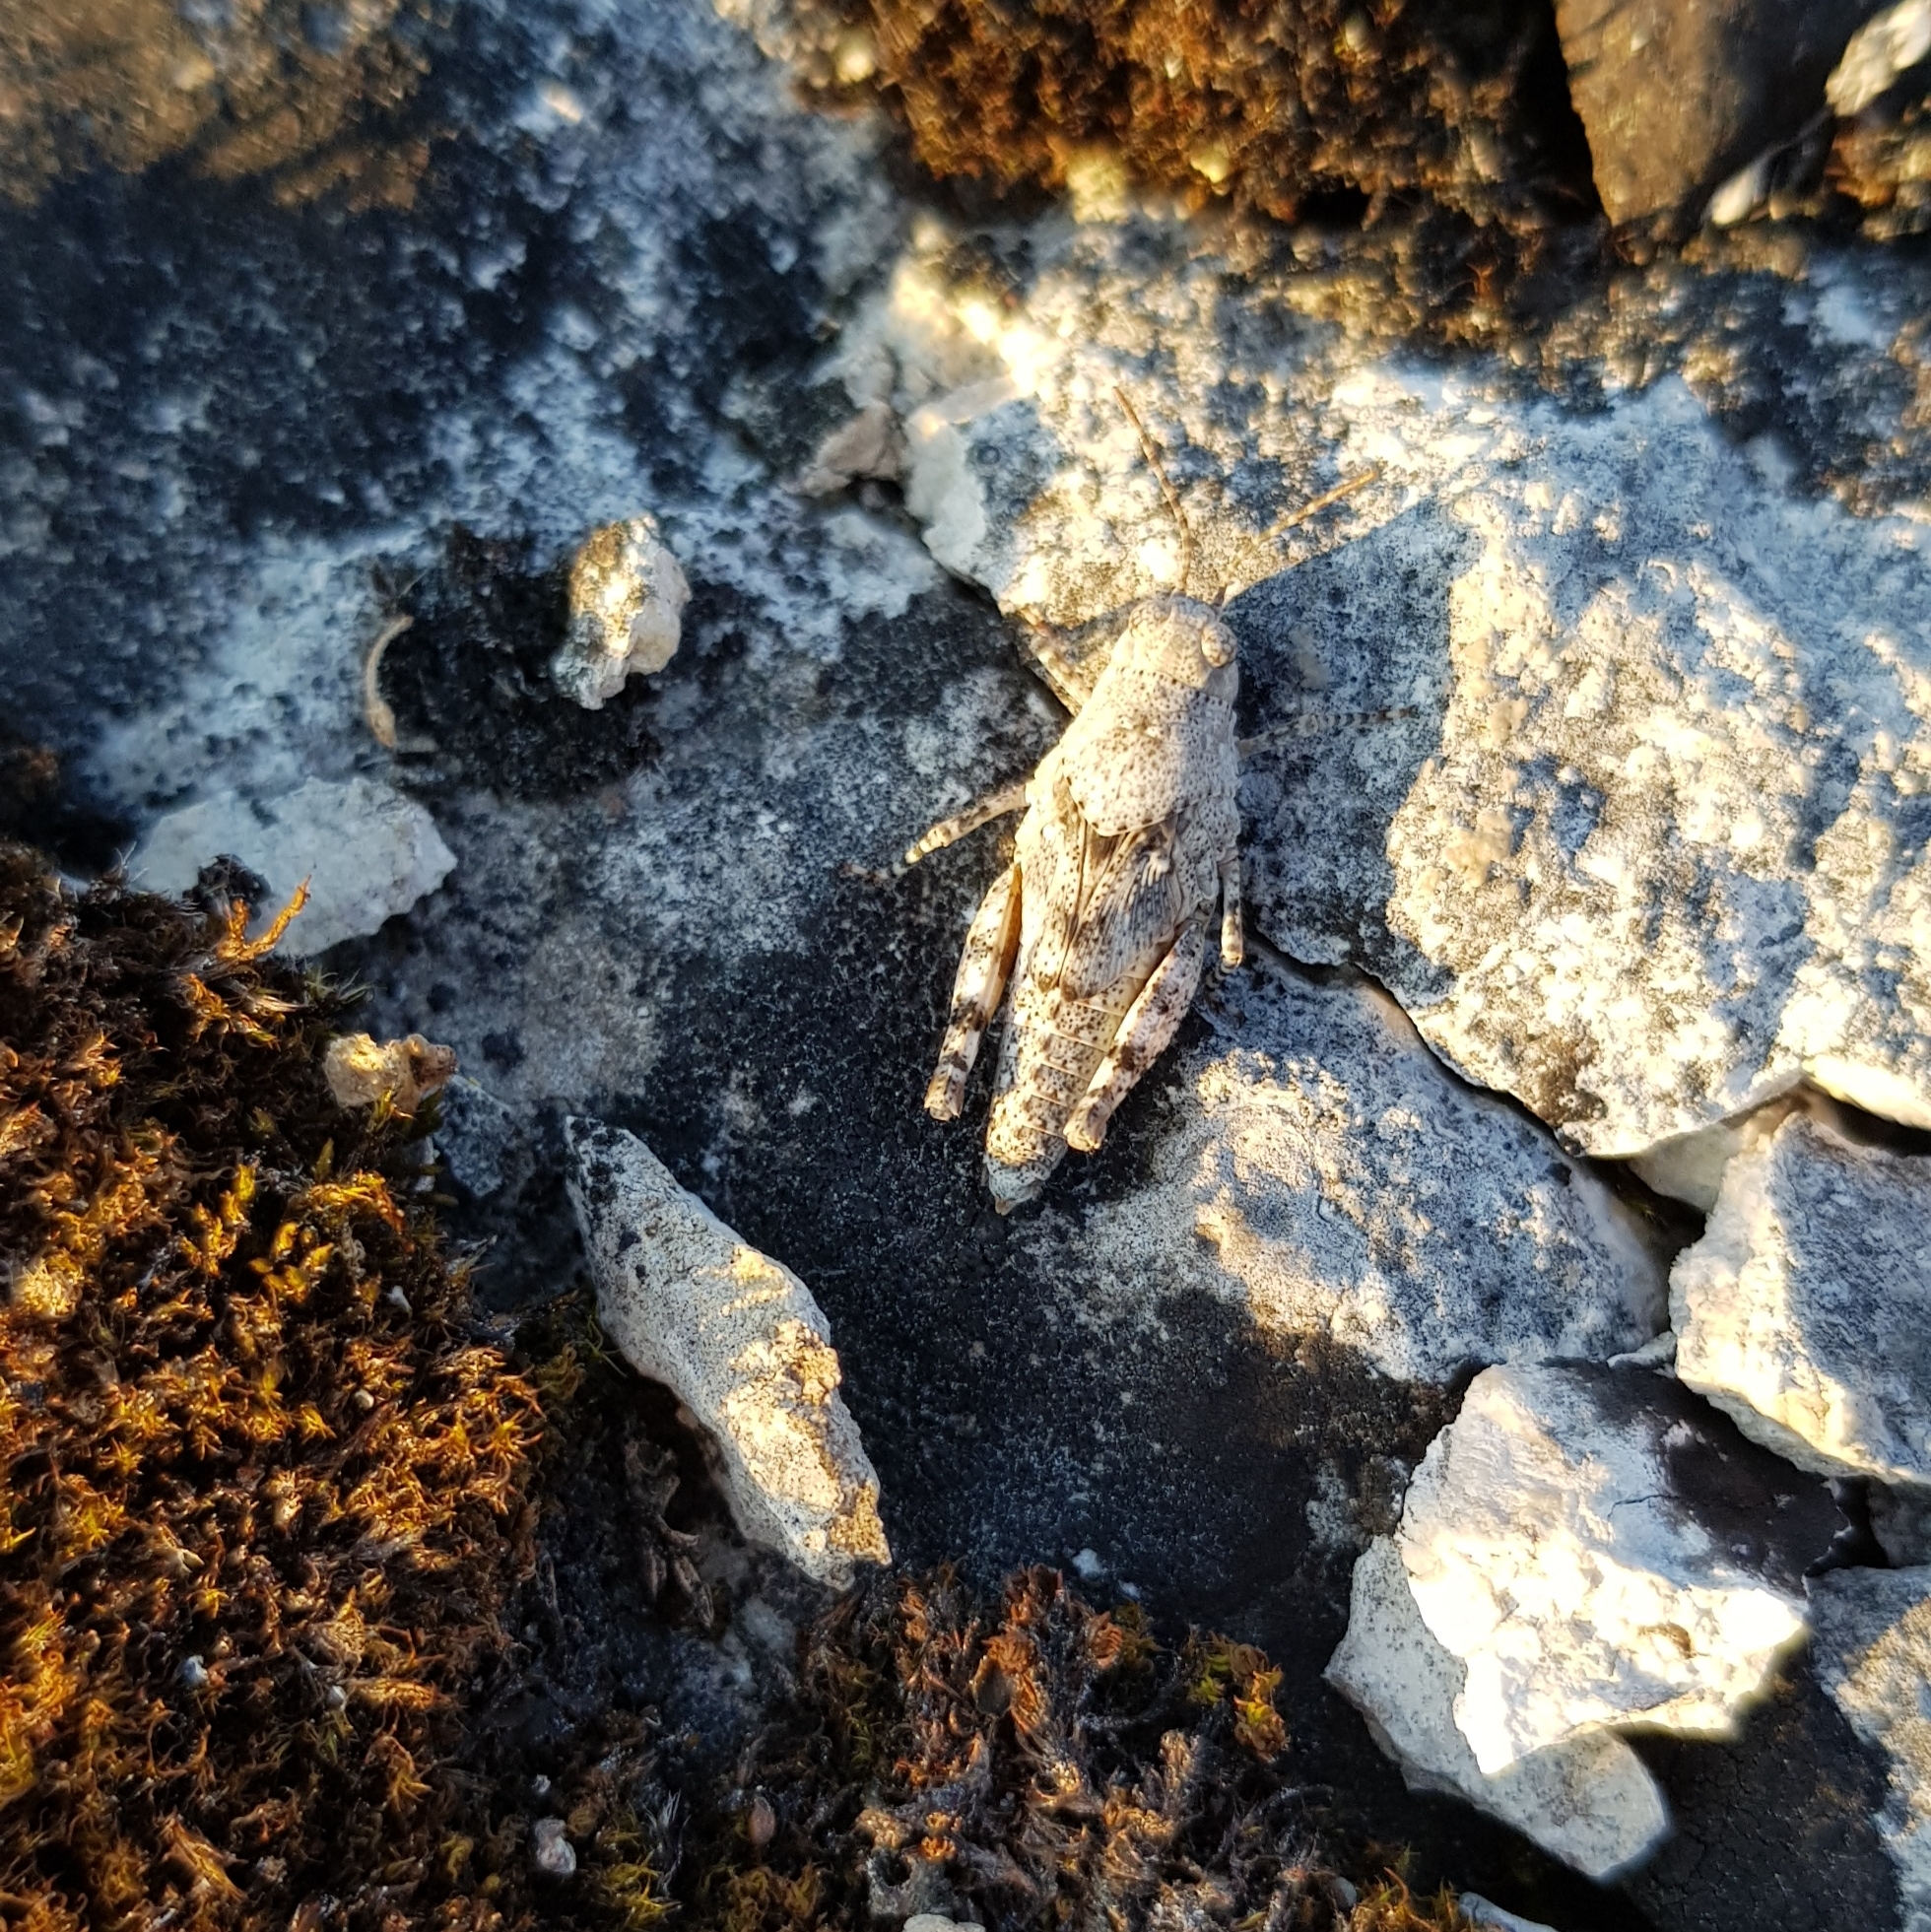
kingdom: Animalia
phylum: Arthropoda
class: Insecta
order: Orthoptera
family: Acrididae
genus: Sphingonotus
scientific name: Sphingonotus caerulans
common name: Blue-winged locust
